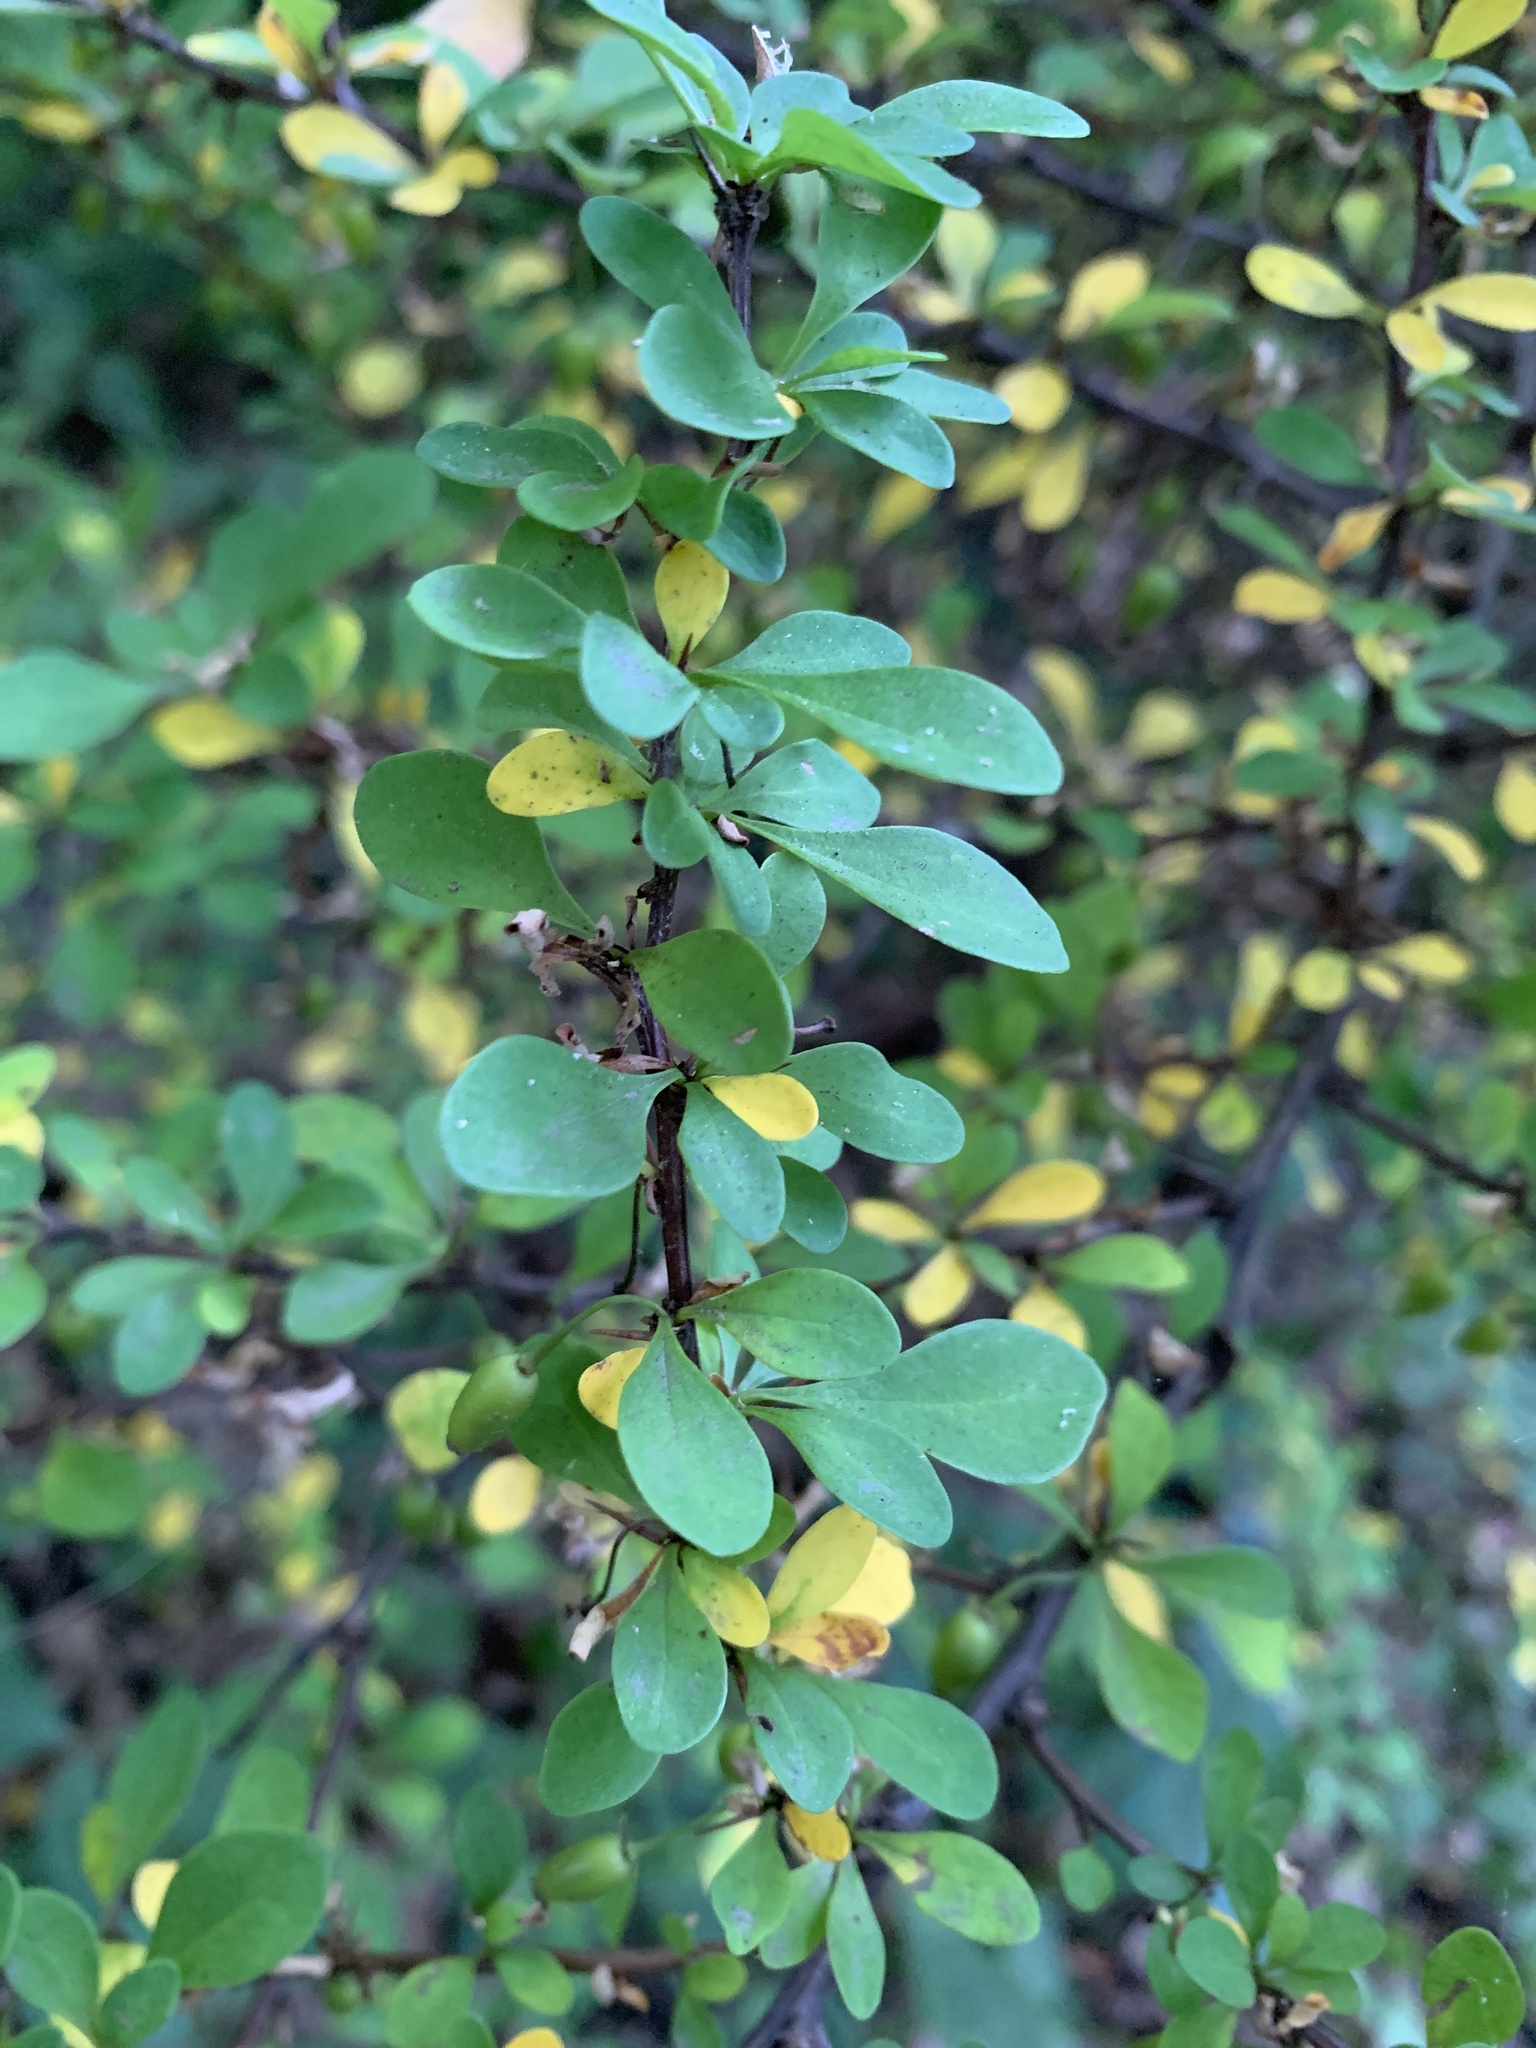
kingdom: Plantae
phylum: Tracheophyta
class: Magnoliopsida
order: Ranunculales
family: Berberidaceae
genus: Berberis
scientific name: Berberis thunbergii
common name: Japanese barberry
